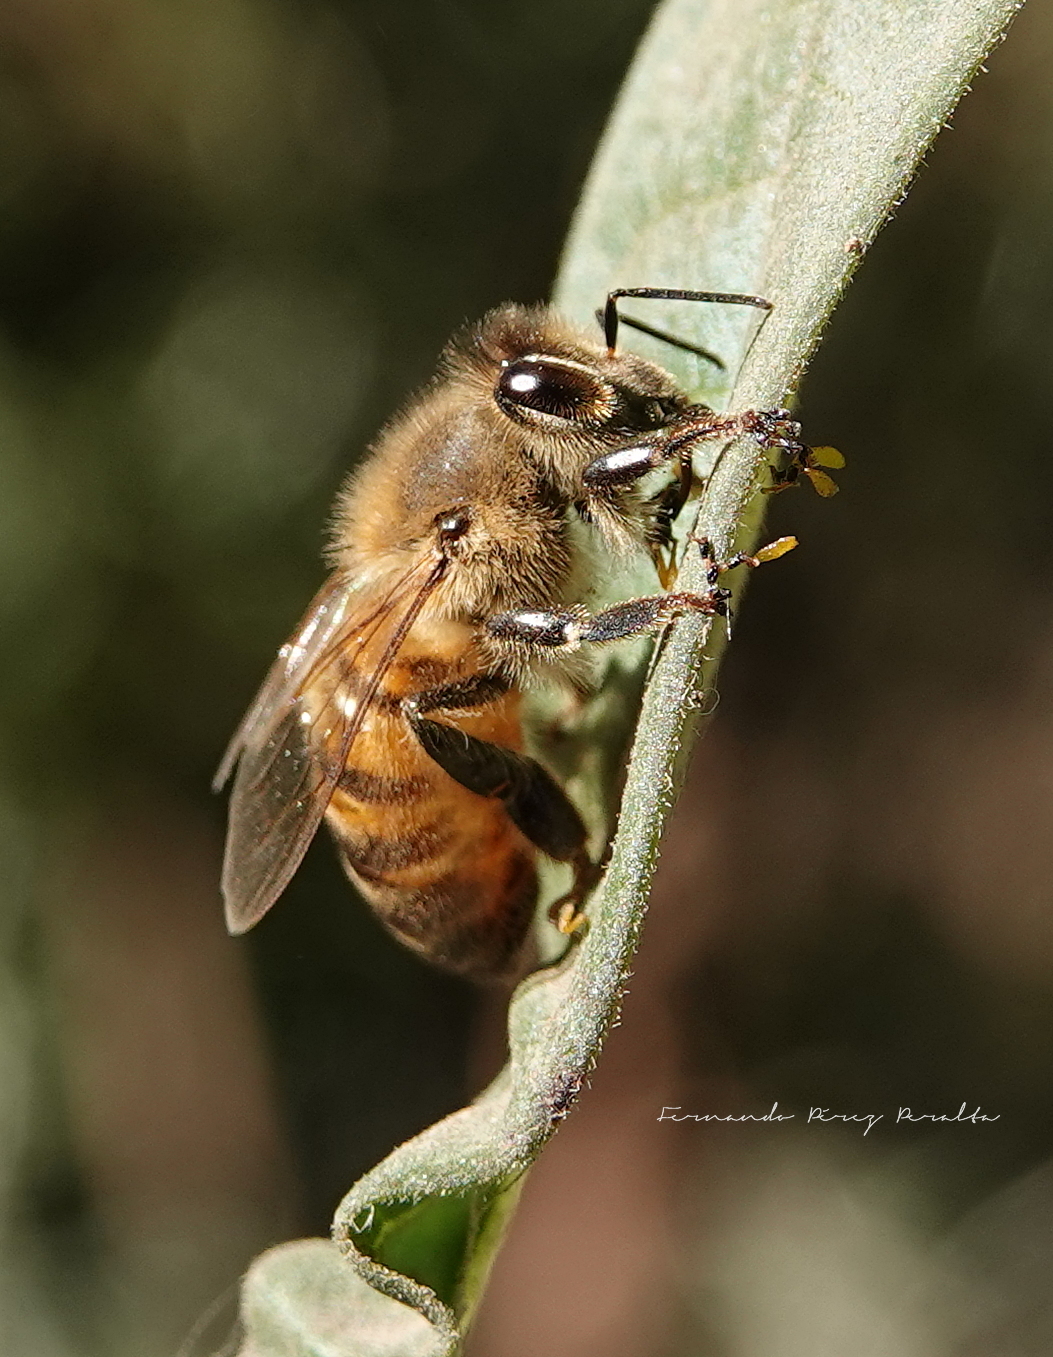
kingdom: Animalia
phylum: Arthropoda
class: Insecta
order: Hymenoptera
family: Apidae
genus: Apis
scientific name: Apis mellifera
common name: Honey bee
